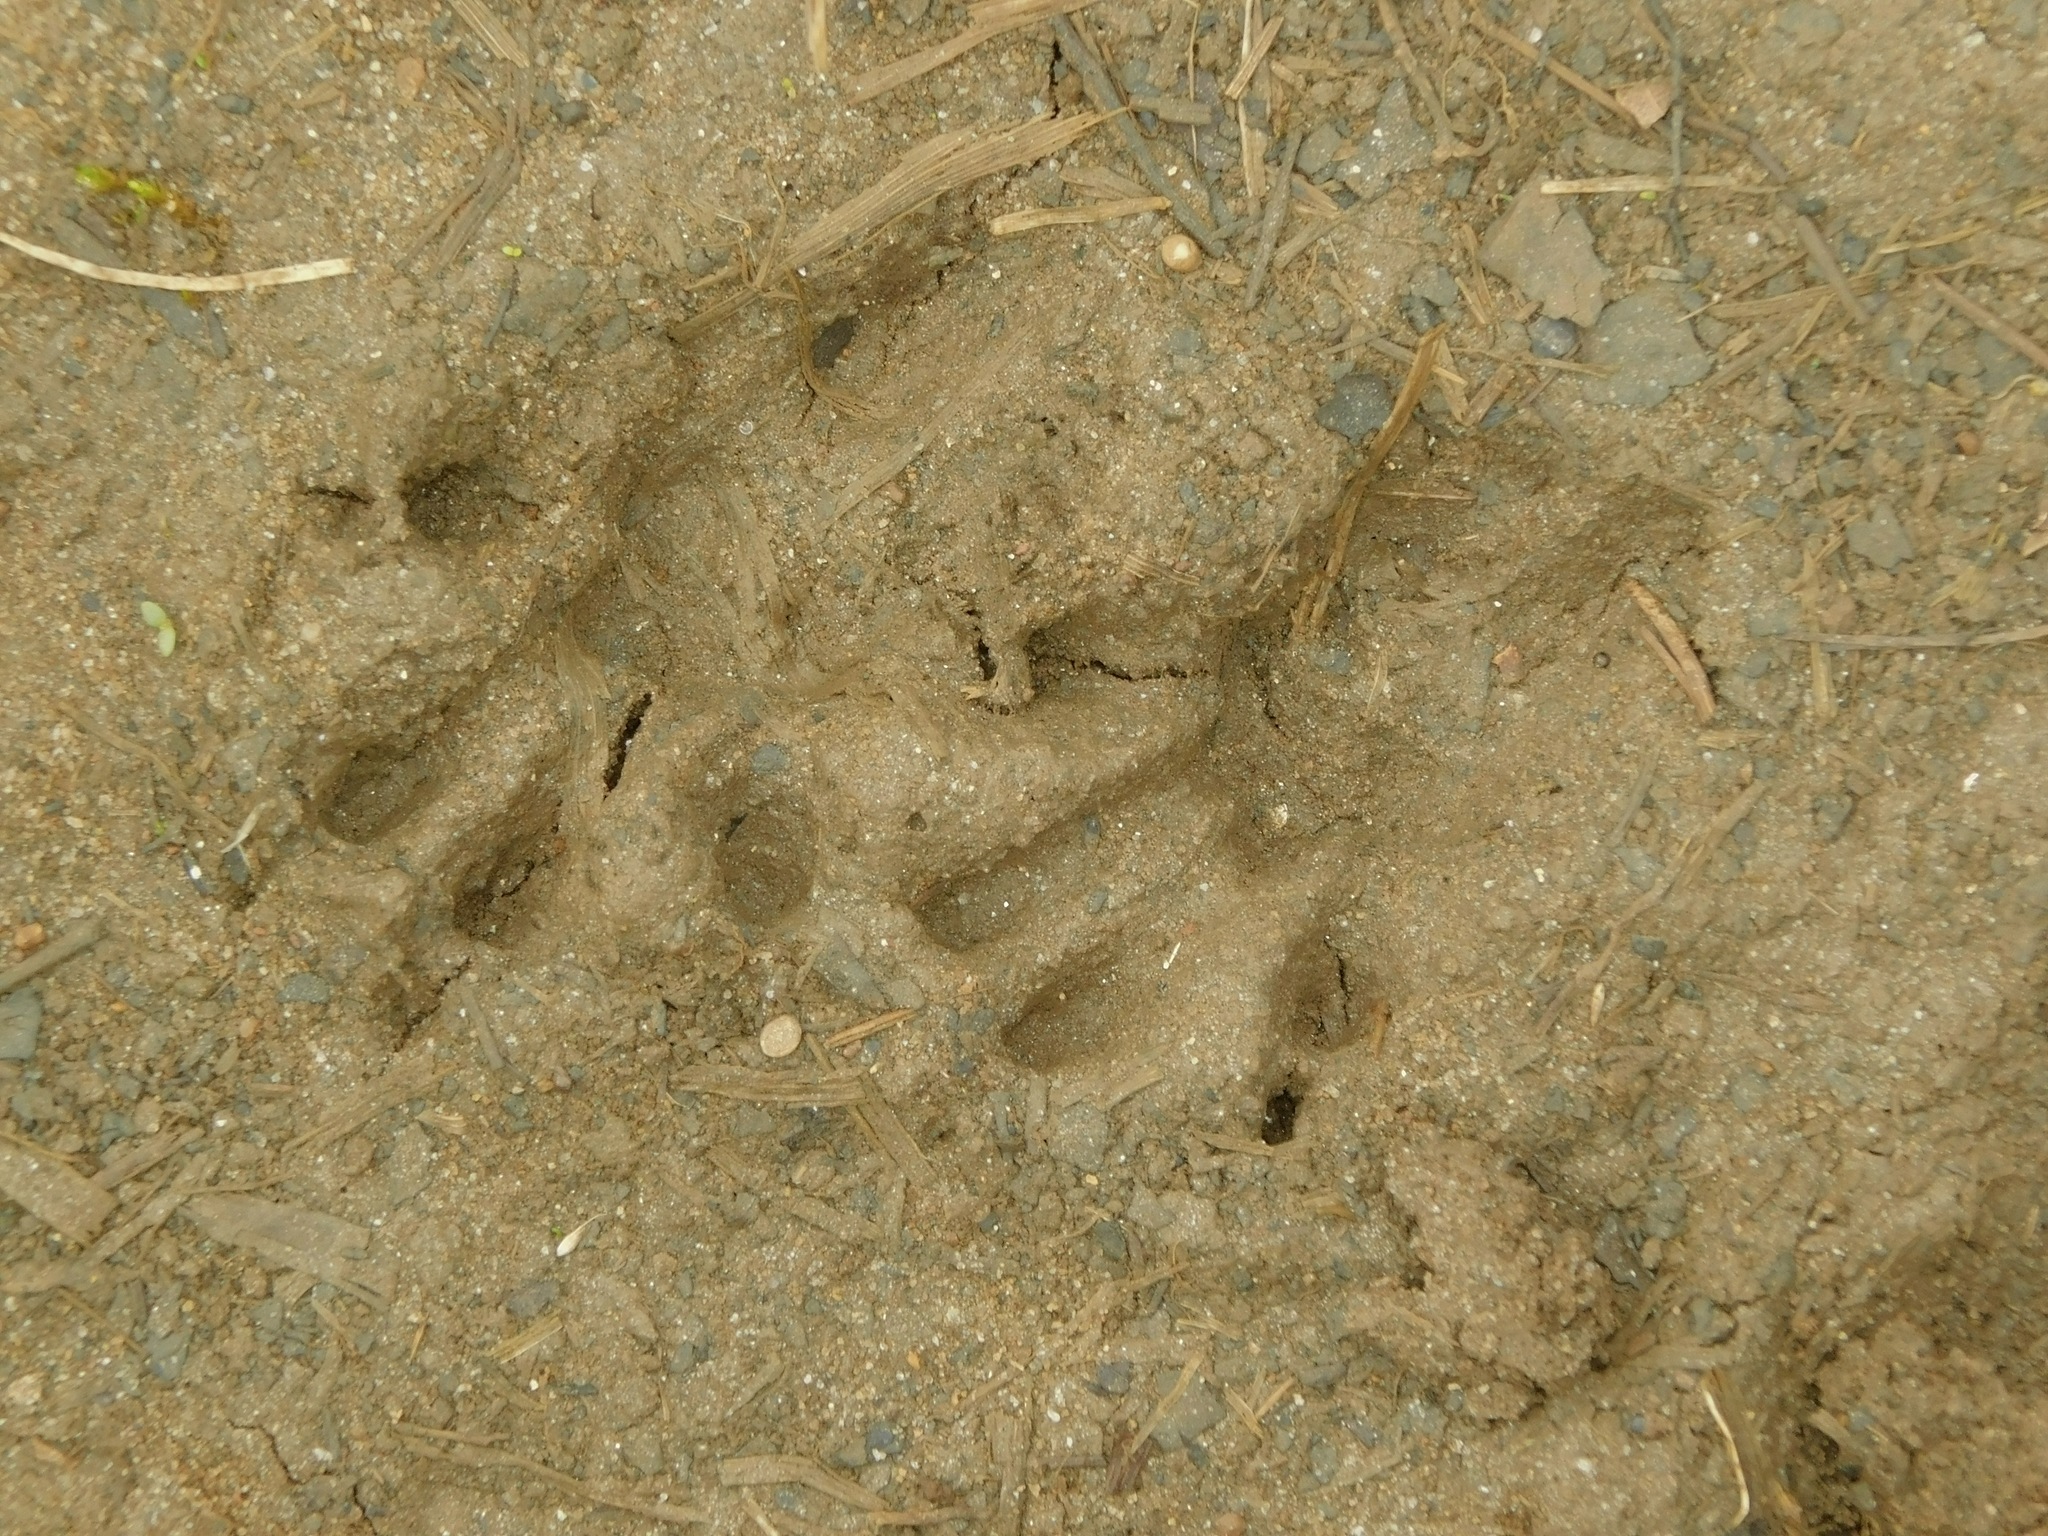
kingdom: Animalia
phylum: Chordata
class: Mammalia
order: Carnivora
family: Procyonidae
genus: Procyon
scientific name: Procyon lotor
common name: Raccoon
